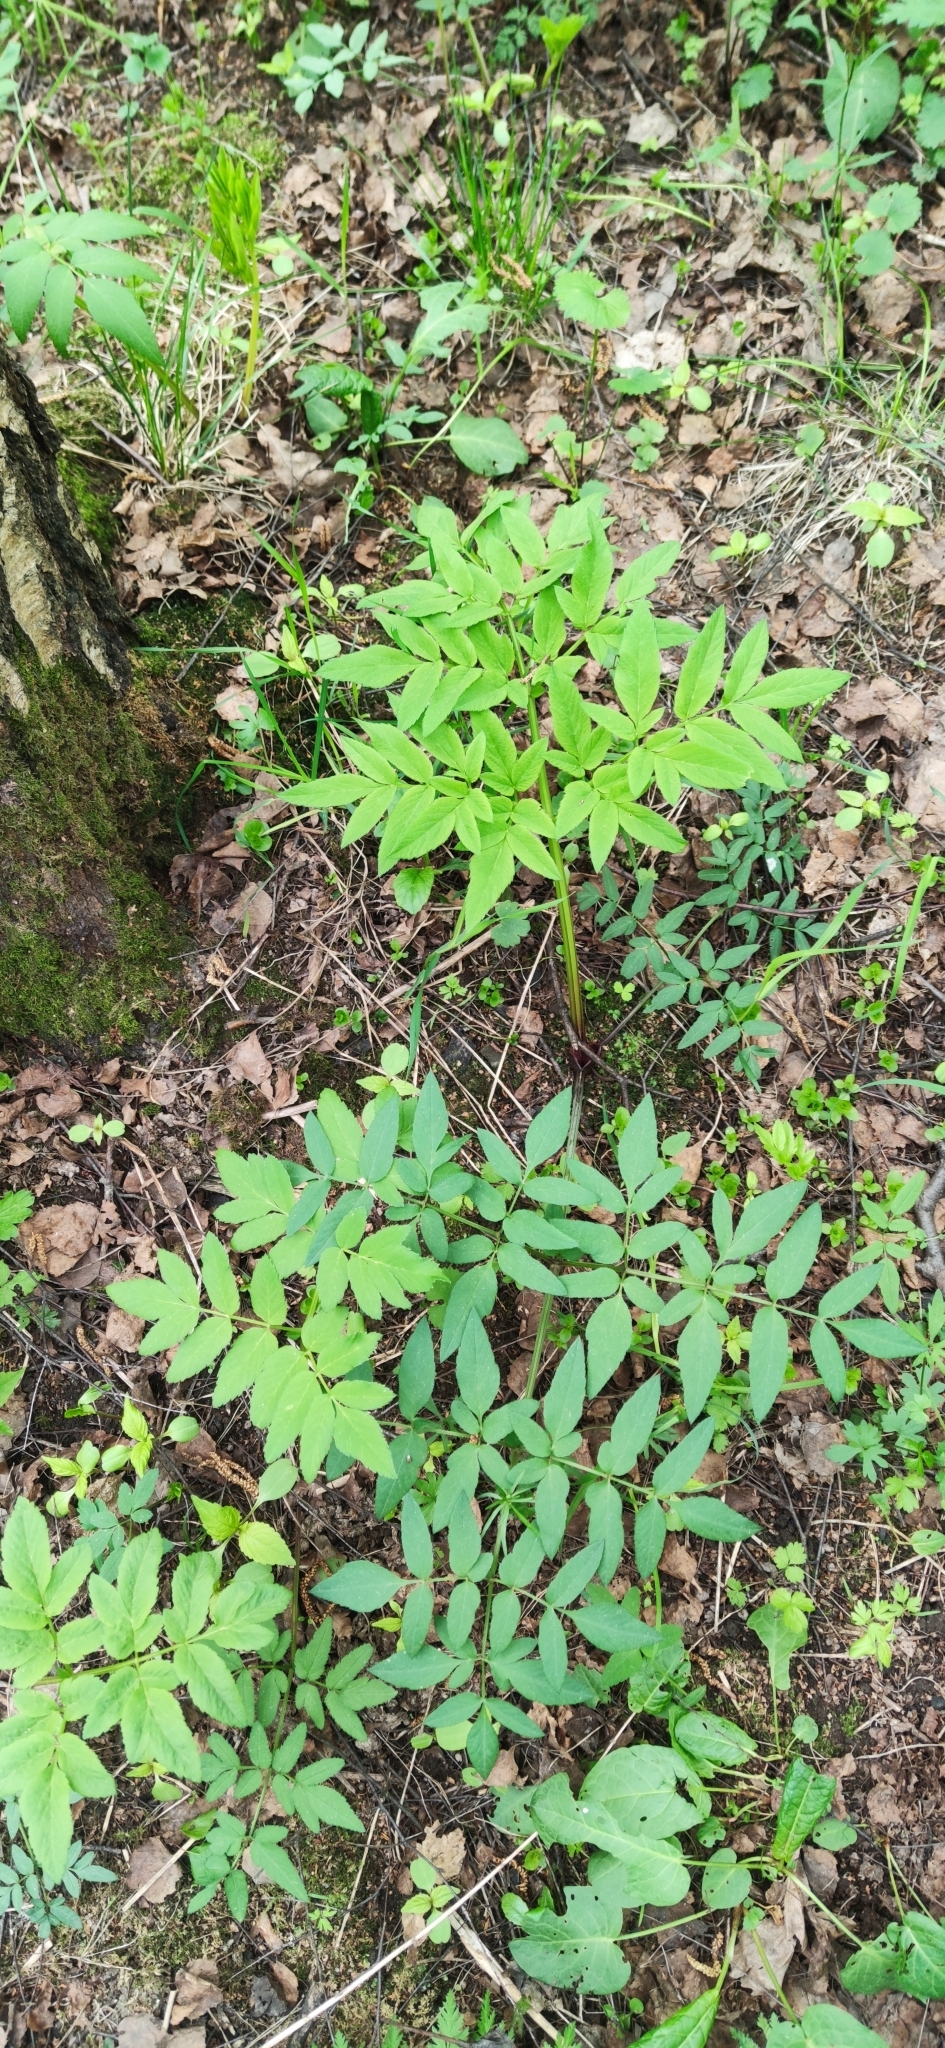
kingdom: Plantae
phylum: Tracheophyta
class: Magnoliopsida
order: Apiales
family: Apiaceae
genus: Angelica
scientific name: Angelica sylvestris
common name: Wild angelica
